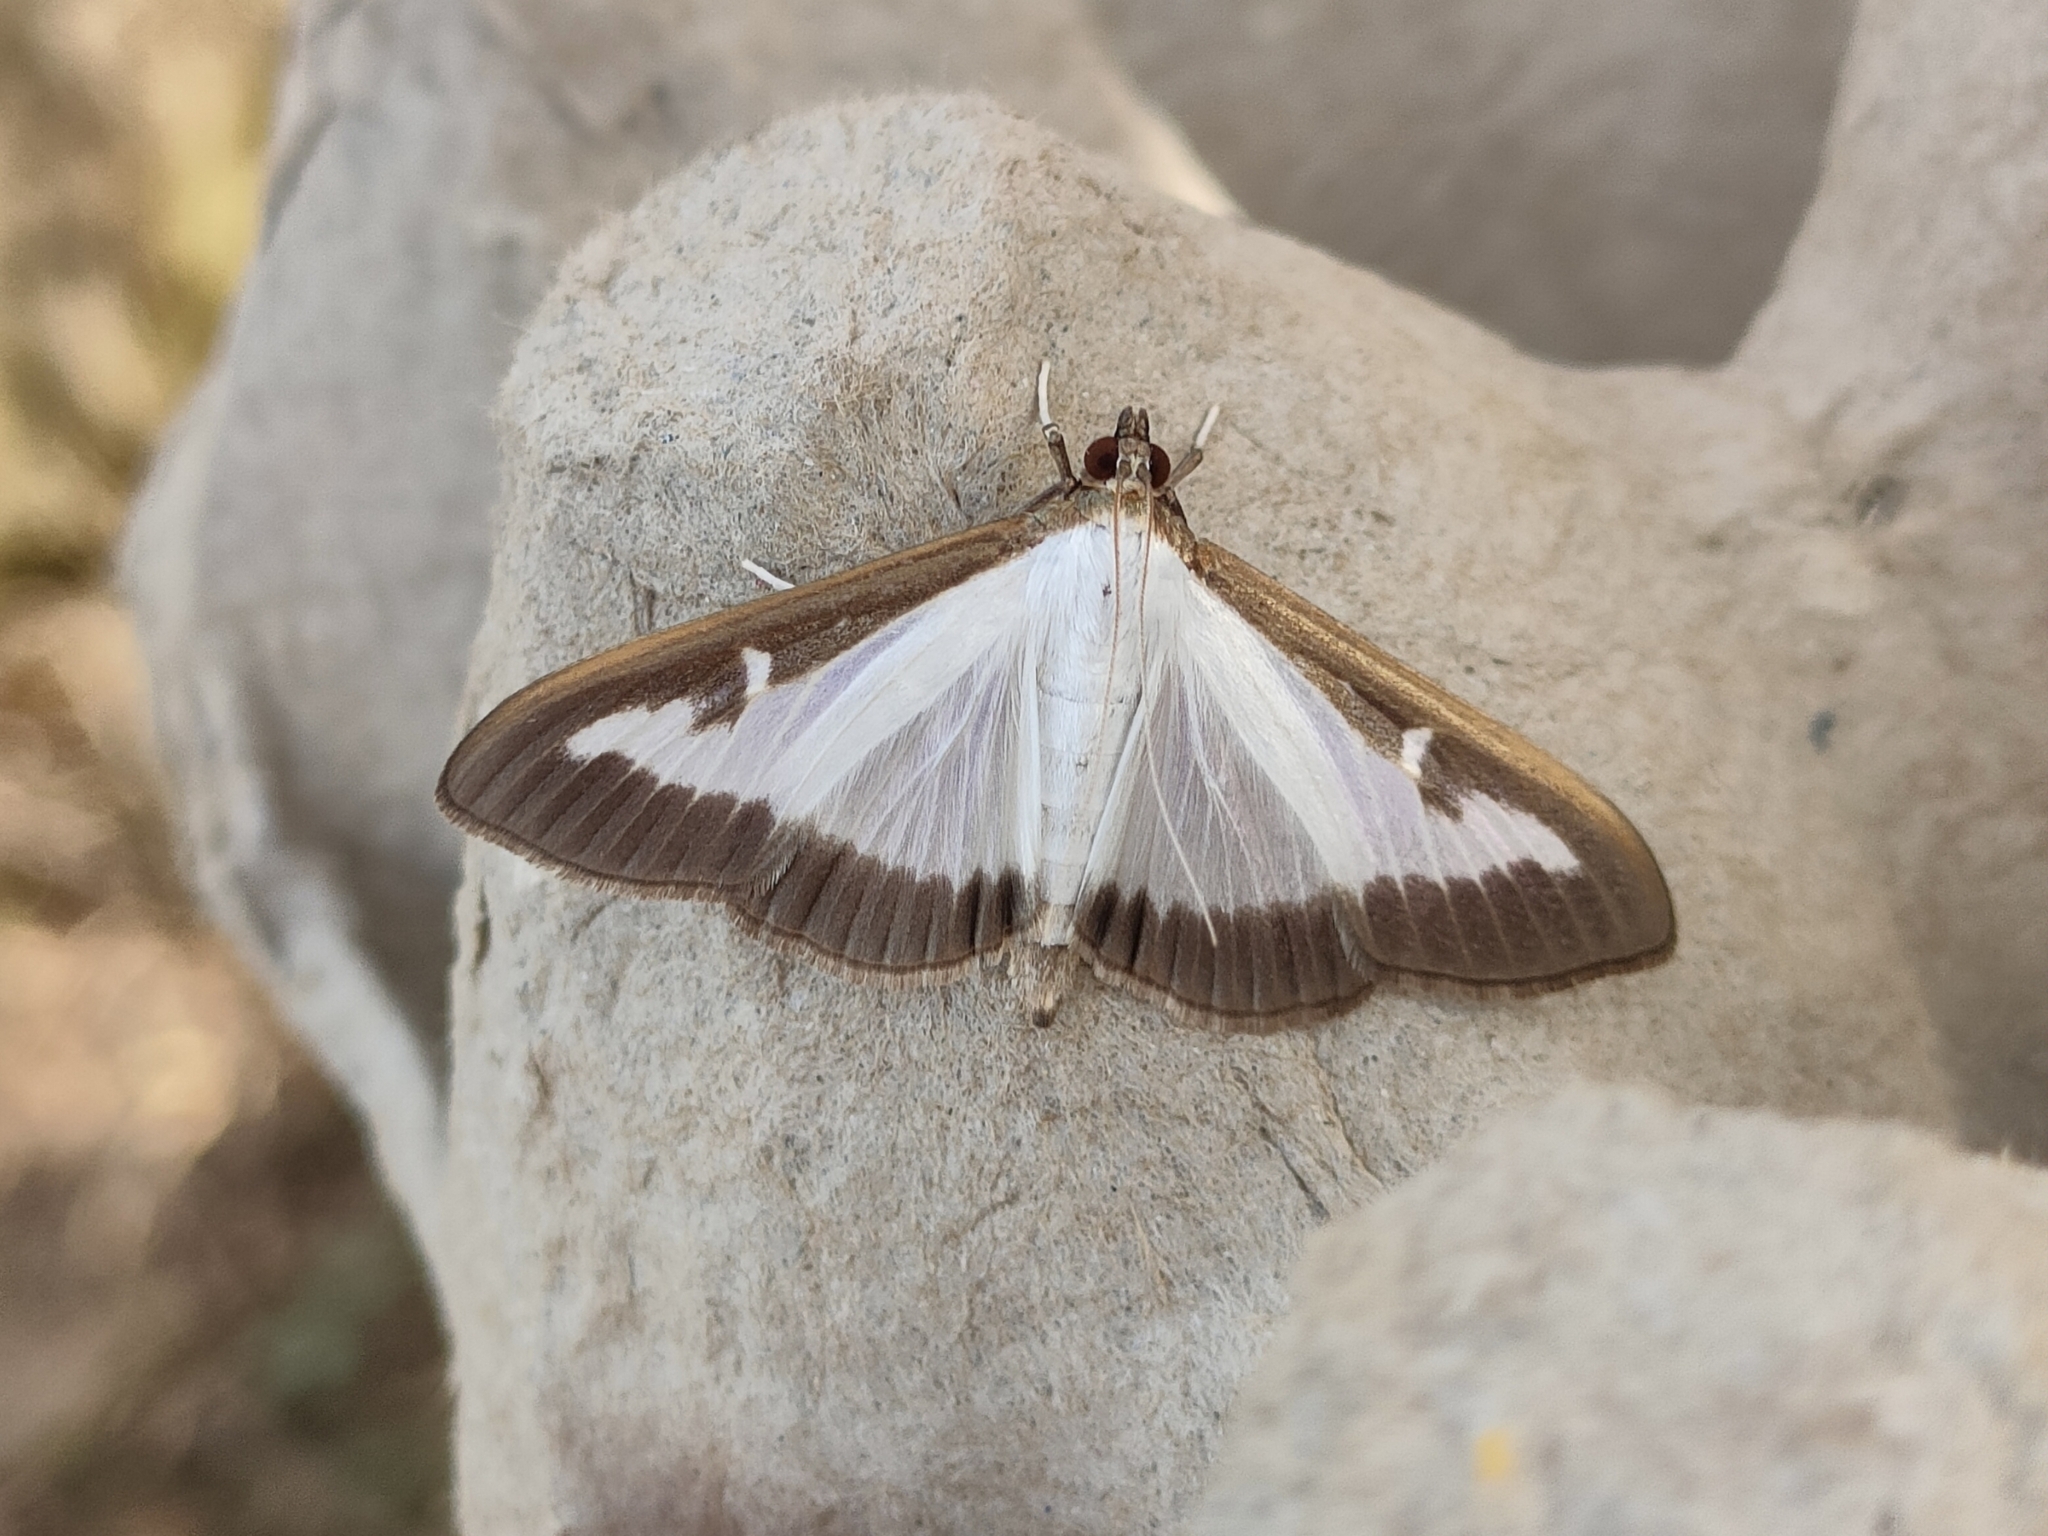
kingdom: Animalia
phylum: Arthropoda
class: Insecta
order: Lepidoptera
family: Crambidae
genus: Cydalima
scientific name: Cydalima perspectalis
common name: Box tree moth
